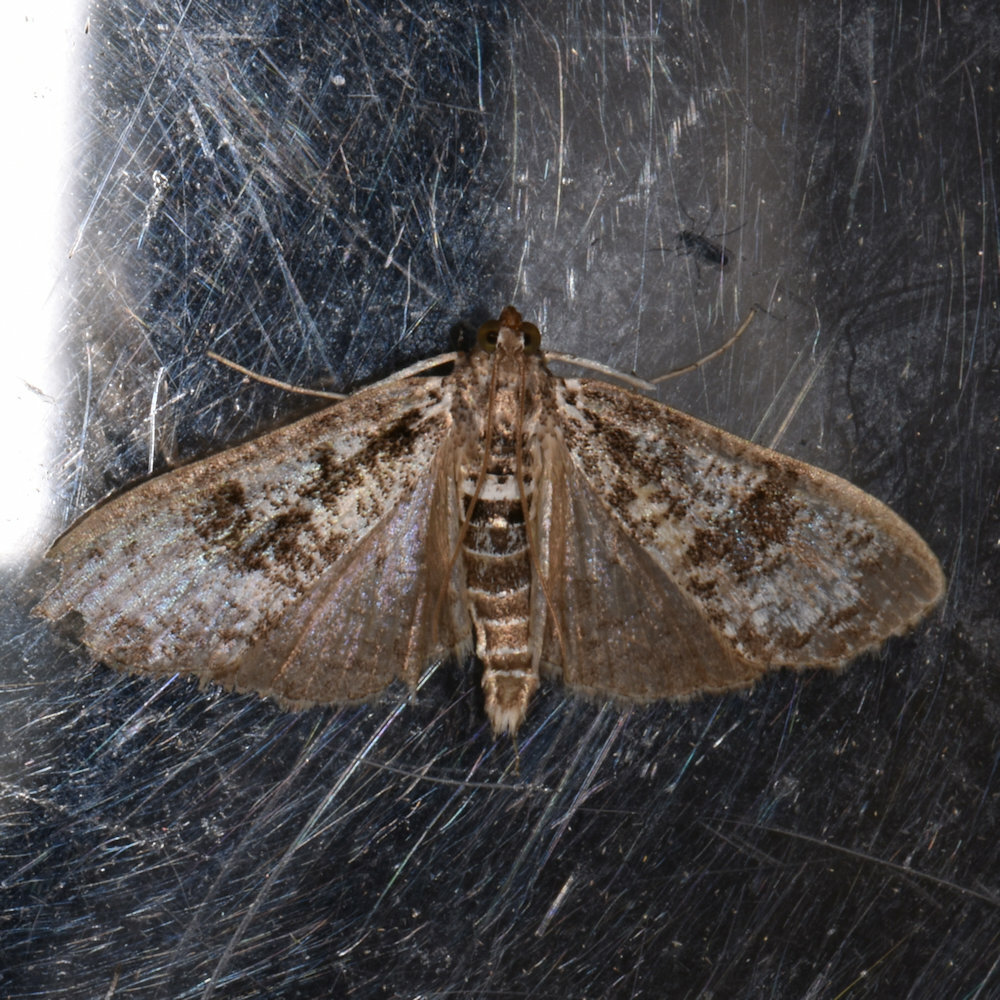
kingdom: Animalia
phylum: Arthropoda
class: Insecta
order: Lepidoptera
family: Crambidae
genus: Palpita
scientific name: Palpita magniferalis
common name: Splendid palpita moth
